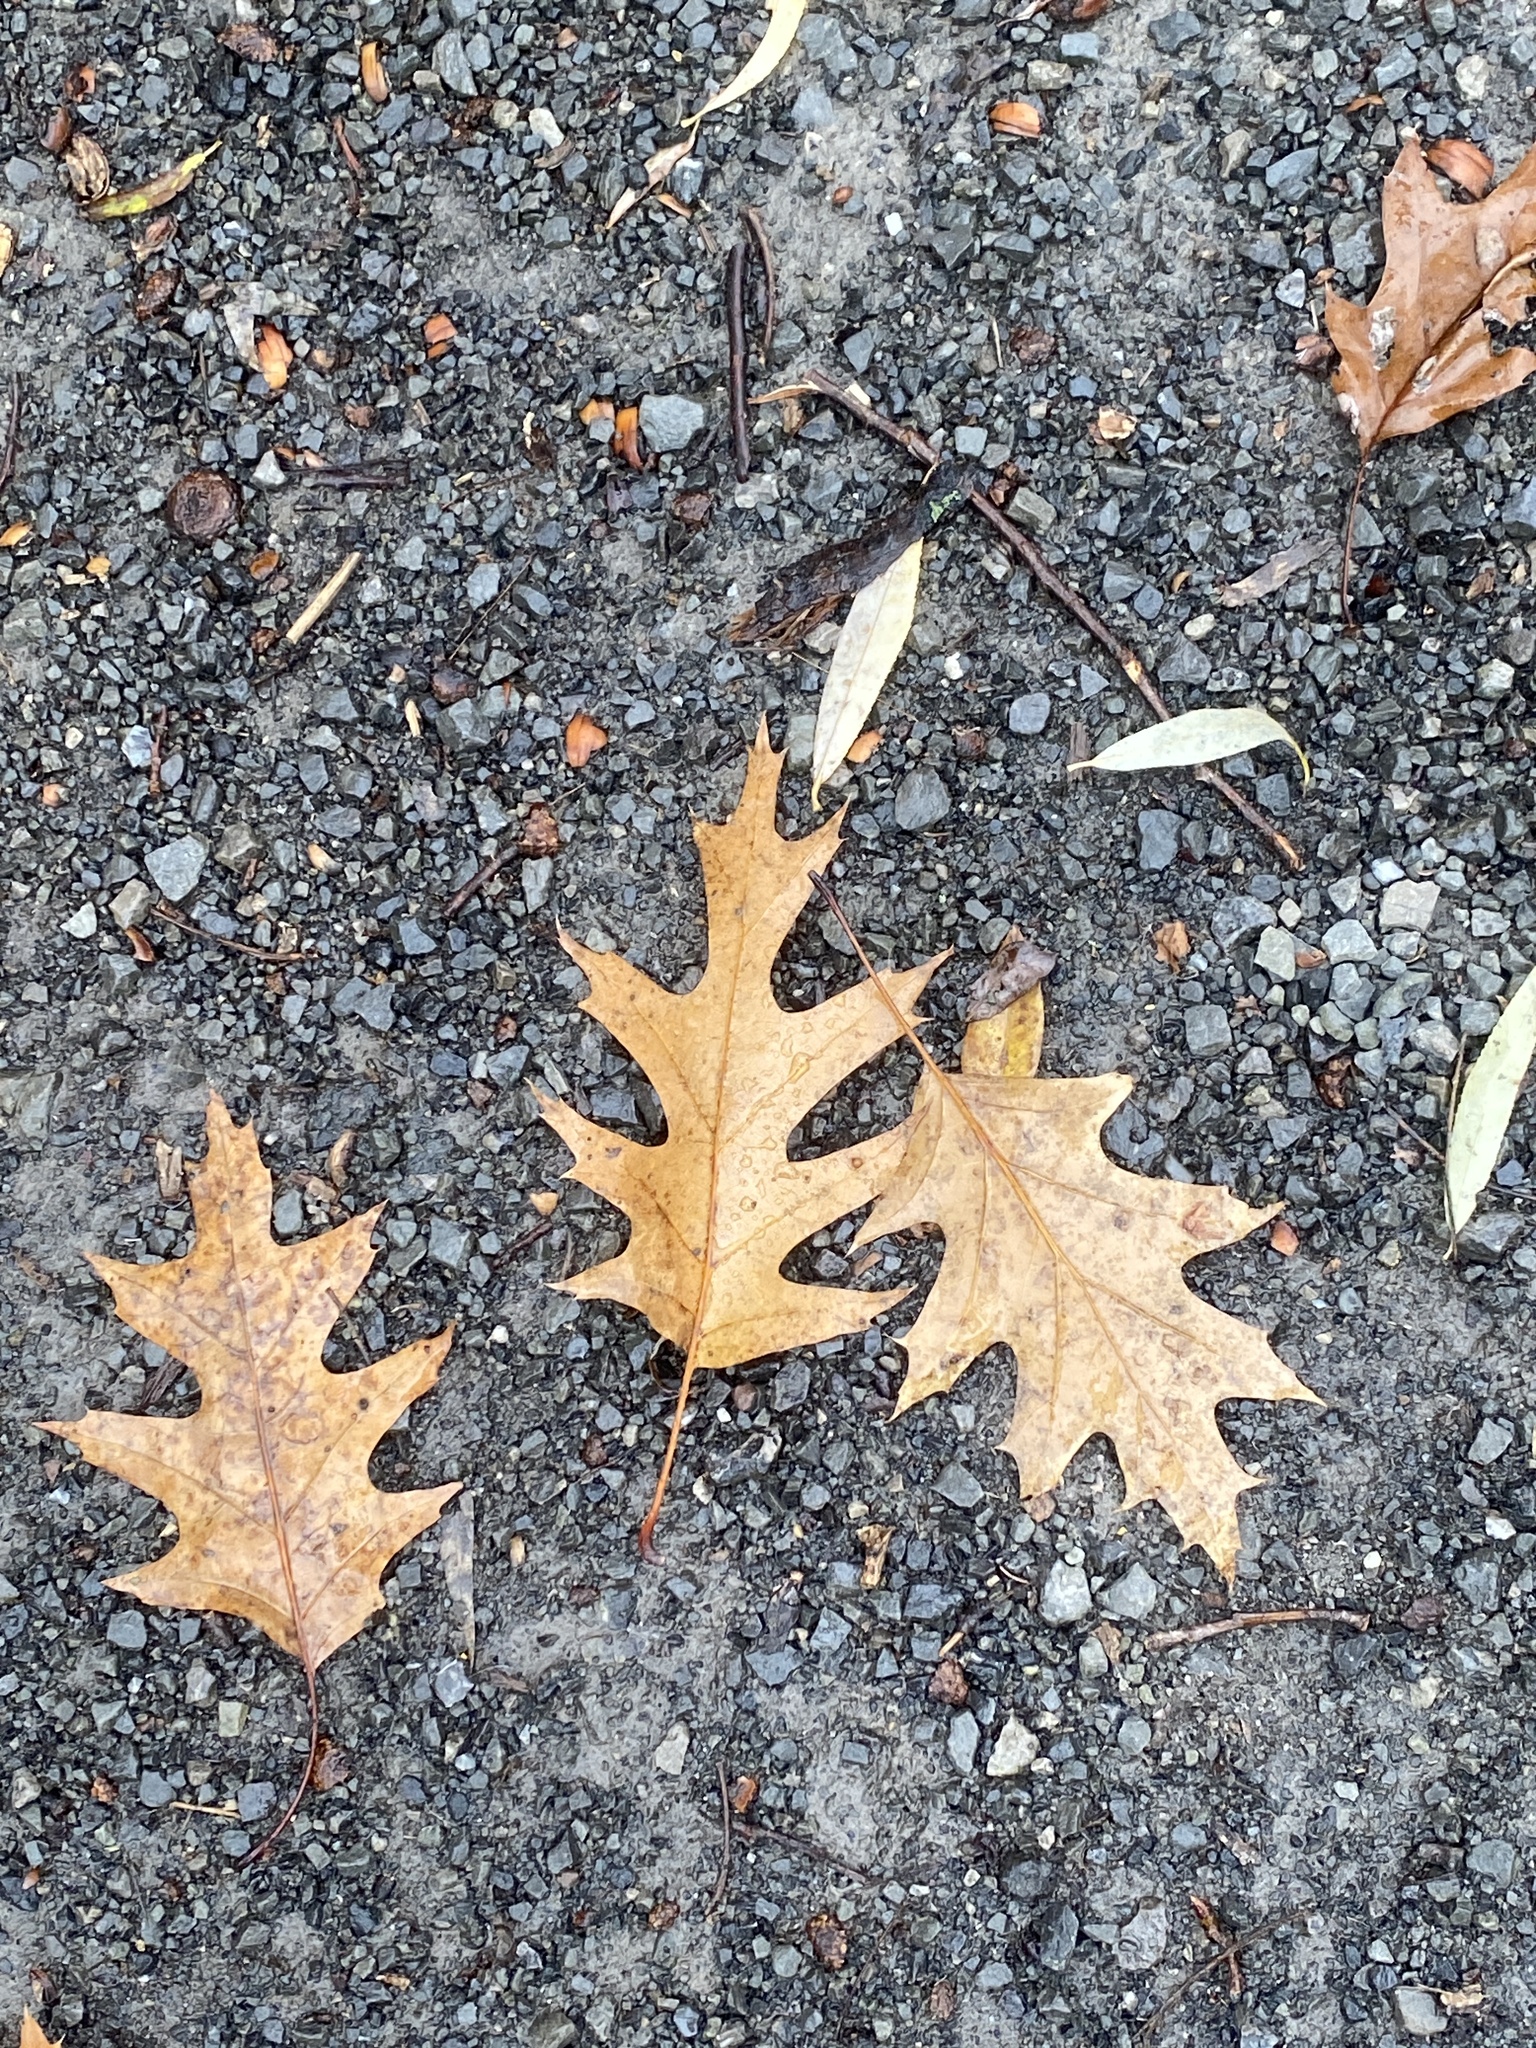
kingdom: Plantae
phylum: Tracheophyta
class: Magnoliopsida
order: Fagales
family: Fagaceae
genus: Quercus
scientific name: Quercus rubra
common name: Red oak
